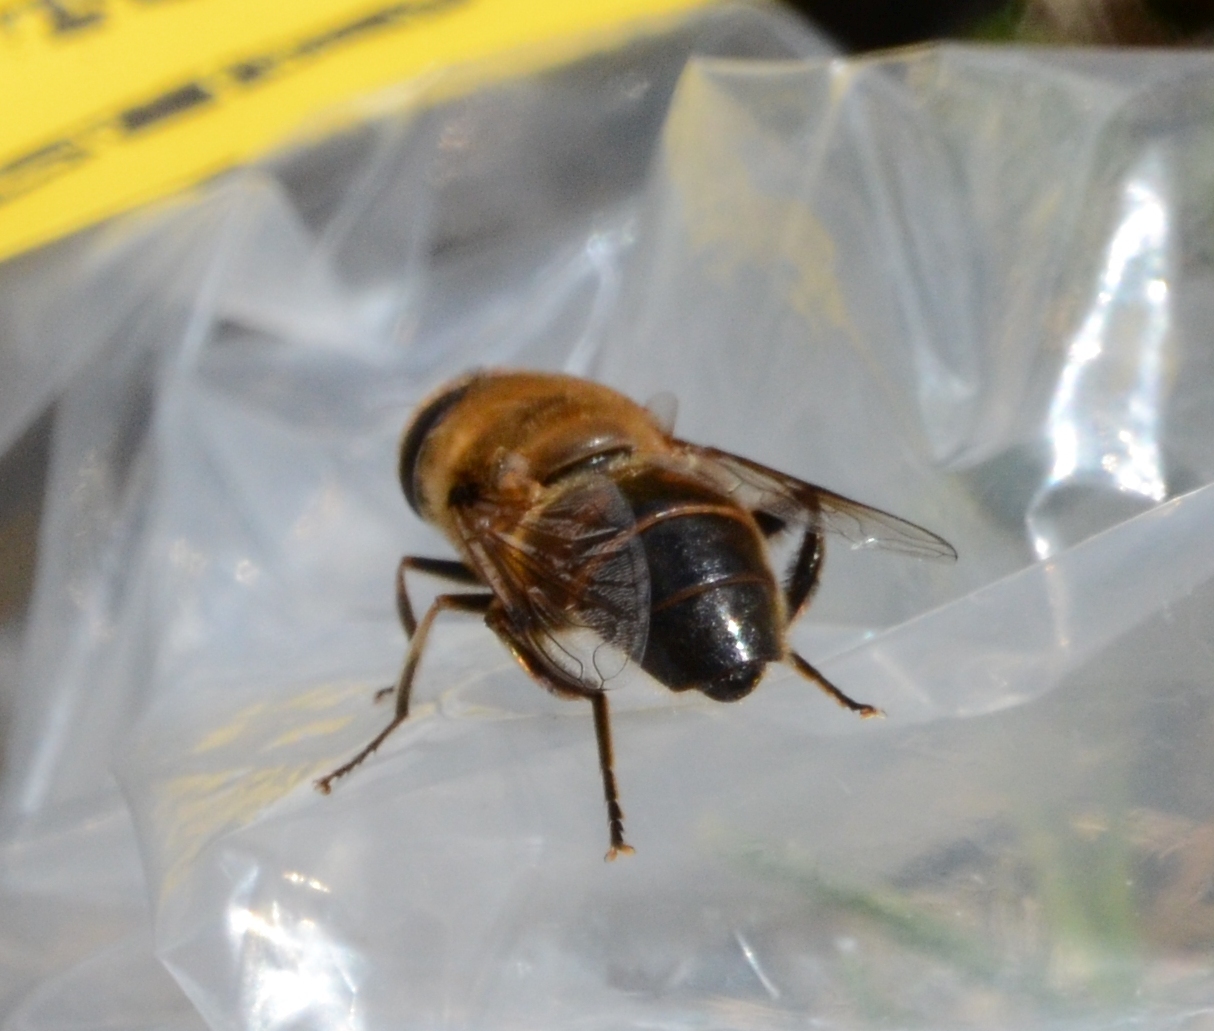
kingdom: Animalia
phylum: Arthropoda
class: Insecta
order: Diptera
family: Syrphidae
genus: Eristalis
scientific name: Eristalis tenax
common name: Drone fly
